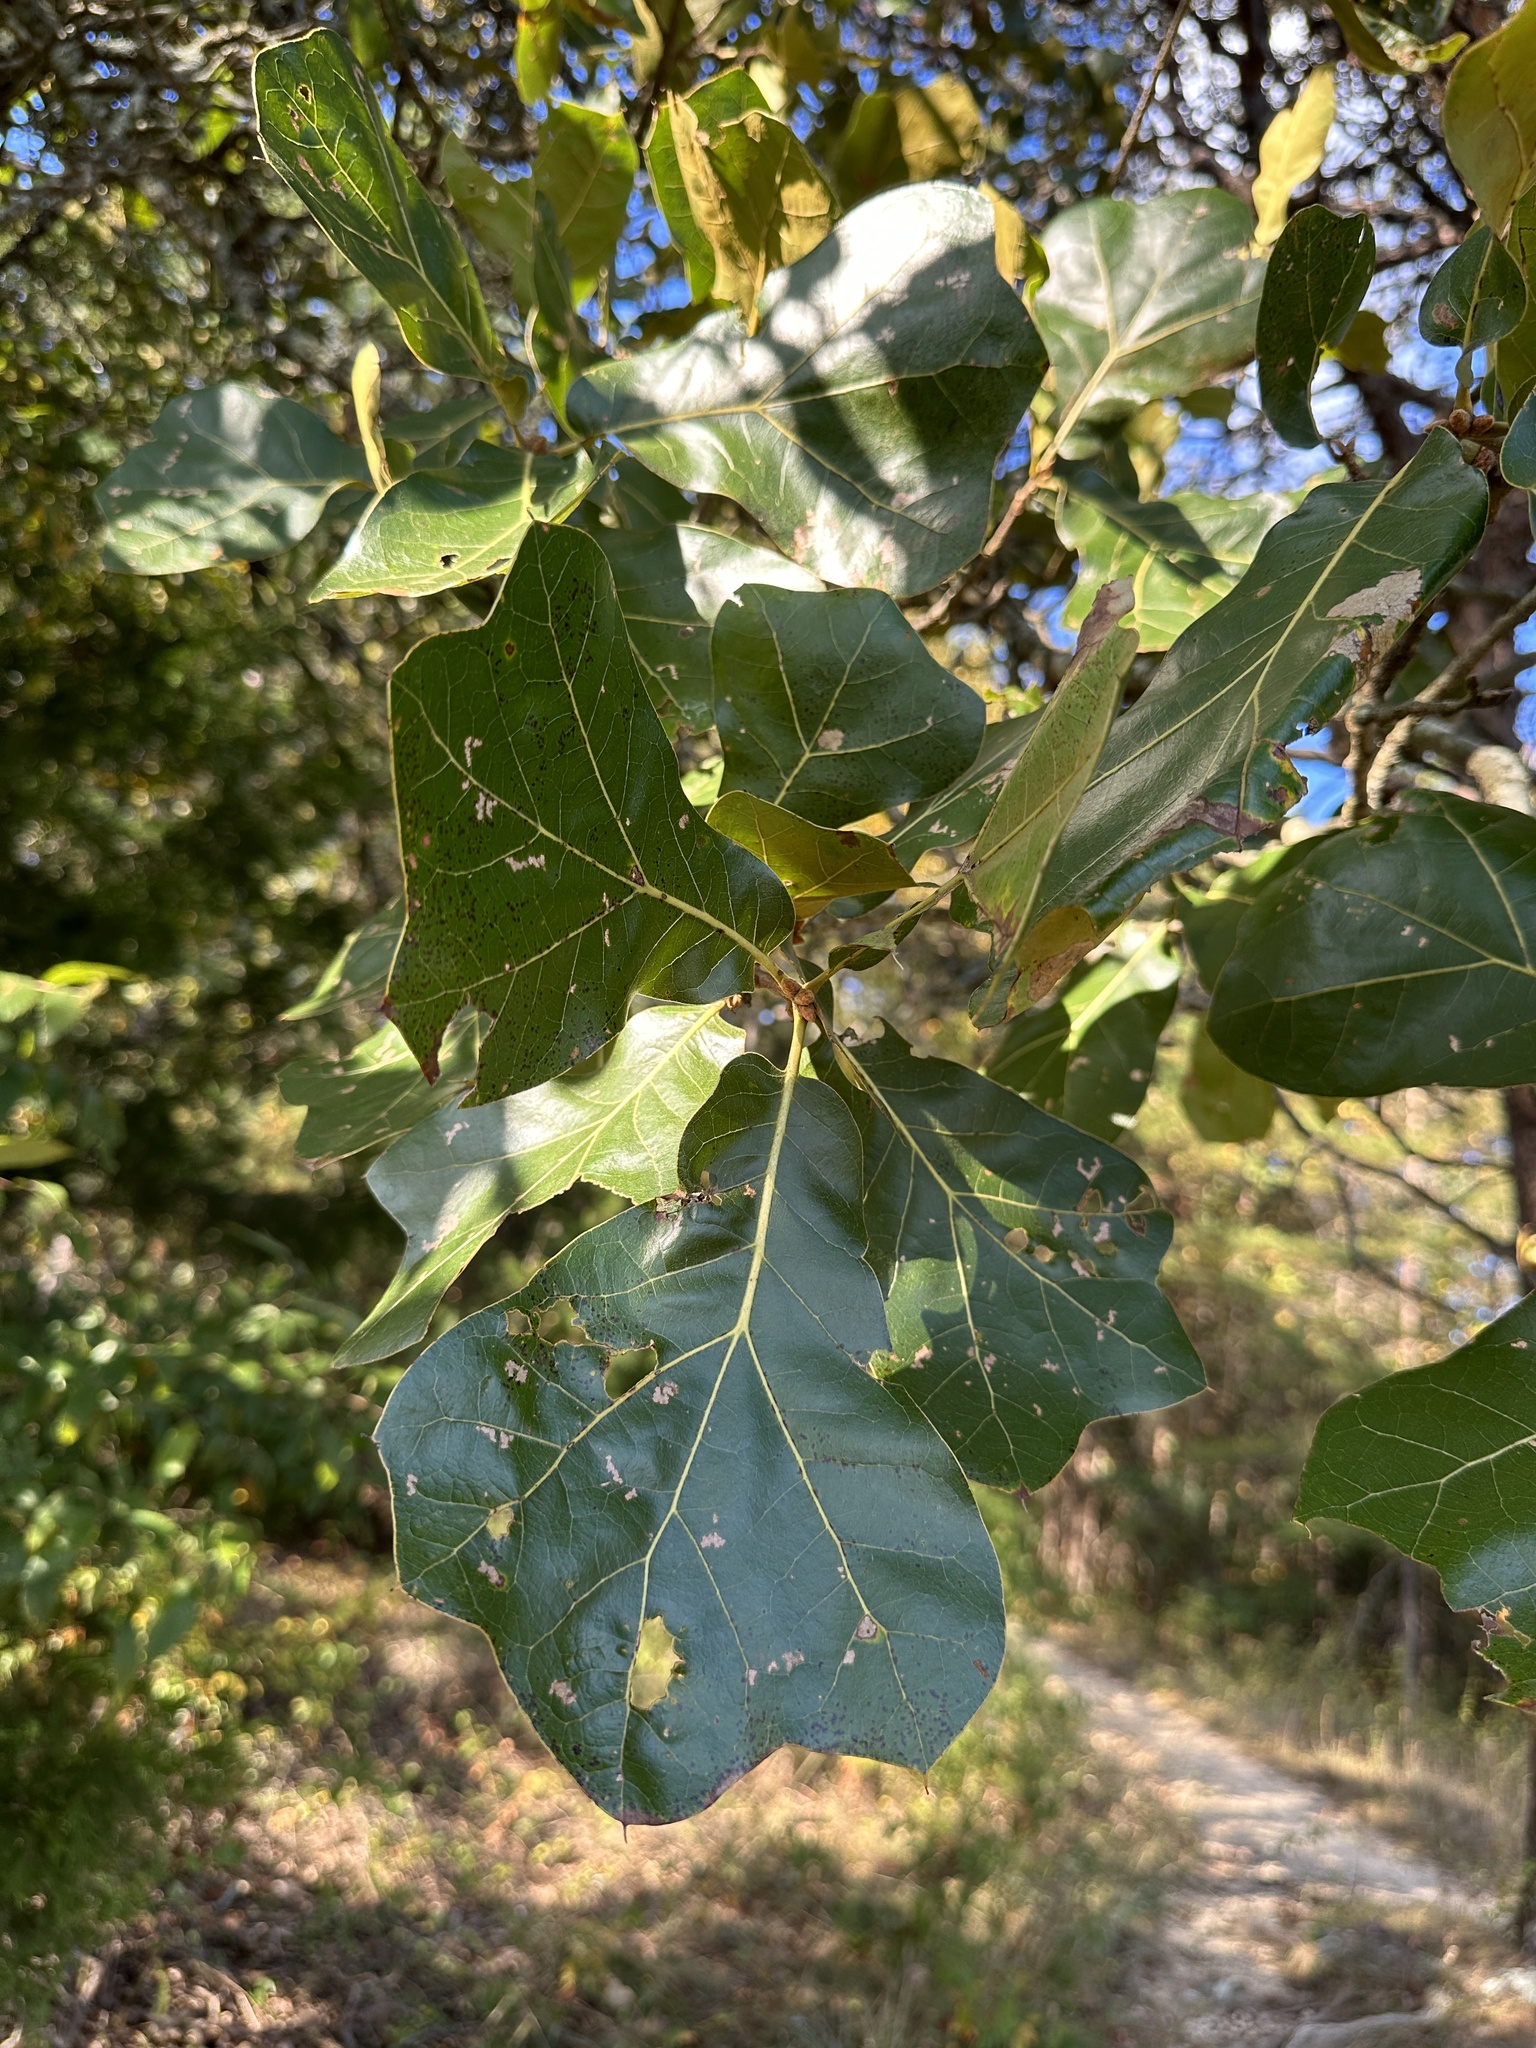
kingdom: Plantae
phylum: Tracheophyta
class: Magnoliopsida
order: Fagales
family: Fagaceae
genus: Quercus
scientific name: Quercus marilandica
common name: Blackjack oak
